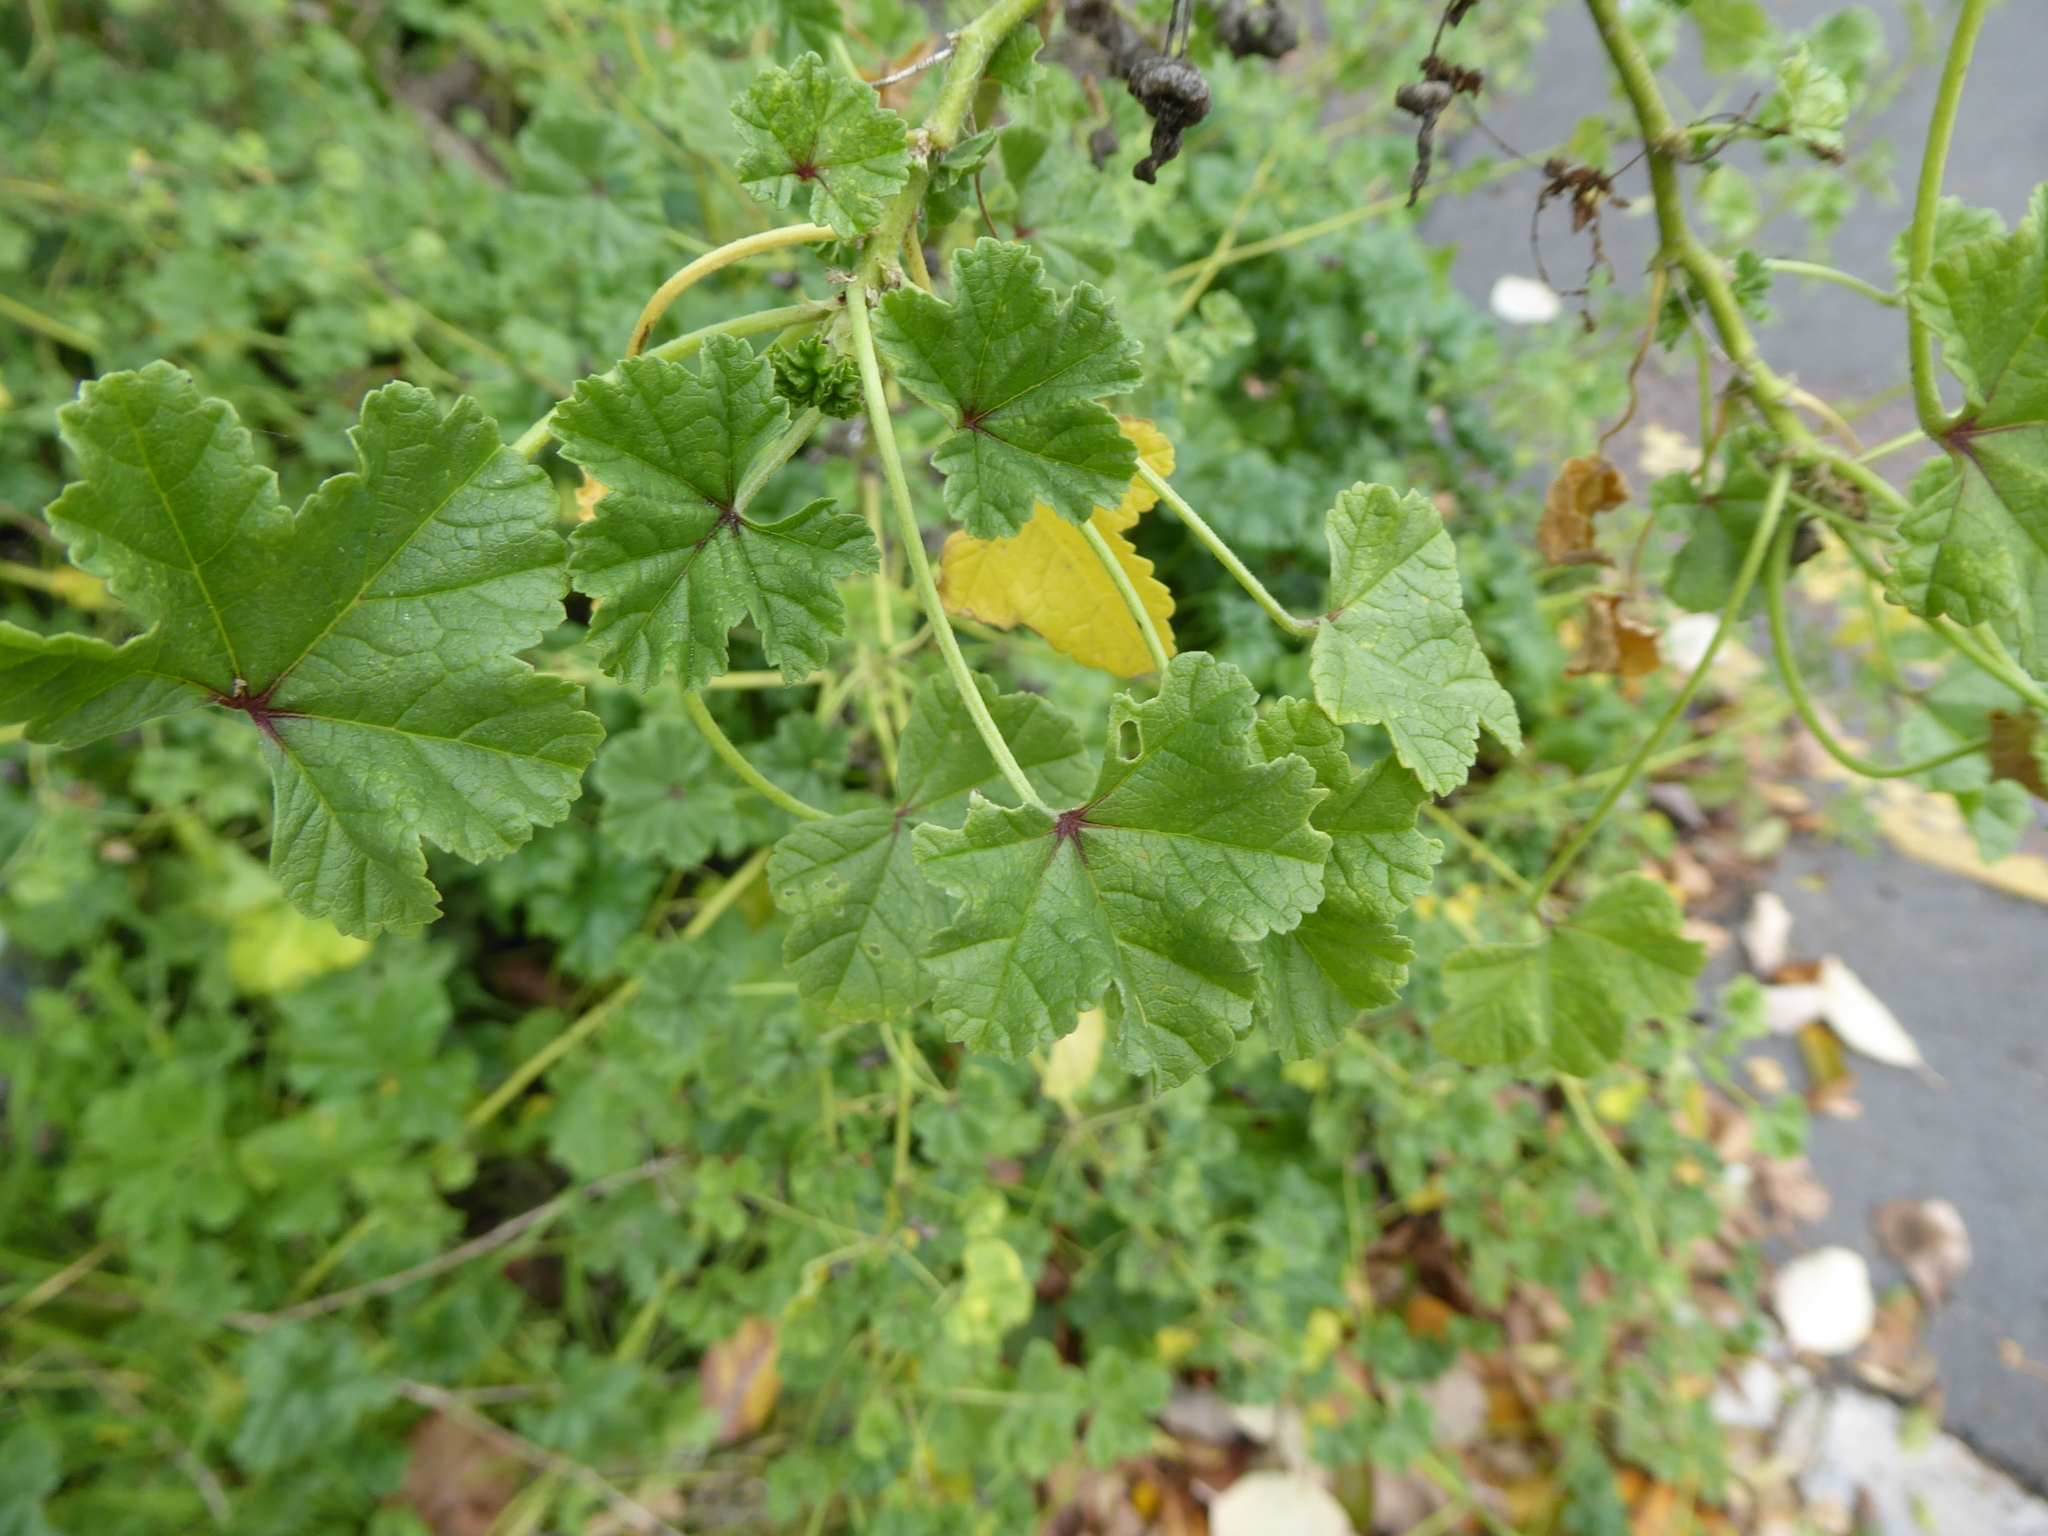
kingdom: Plantae
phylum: Tracheophyta
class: Magnoliopsida
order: Malvales
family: Malvaceae
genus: Malva
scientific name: Malva sylvestris
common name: Common mallow
